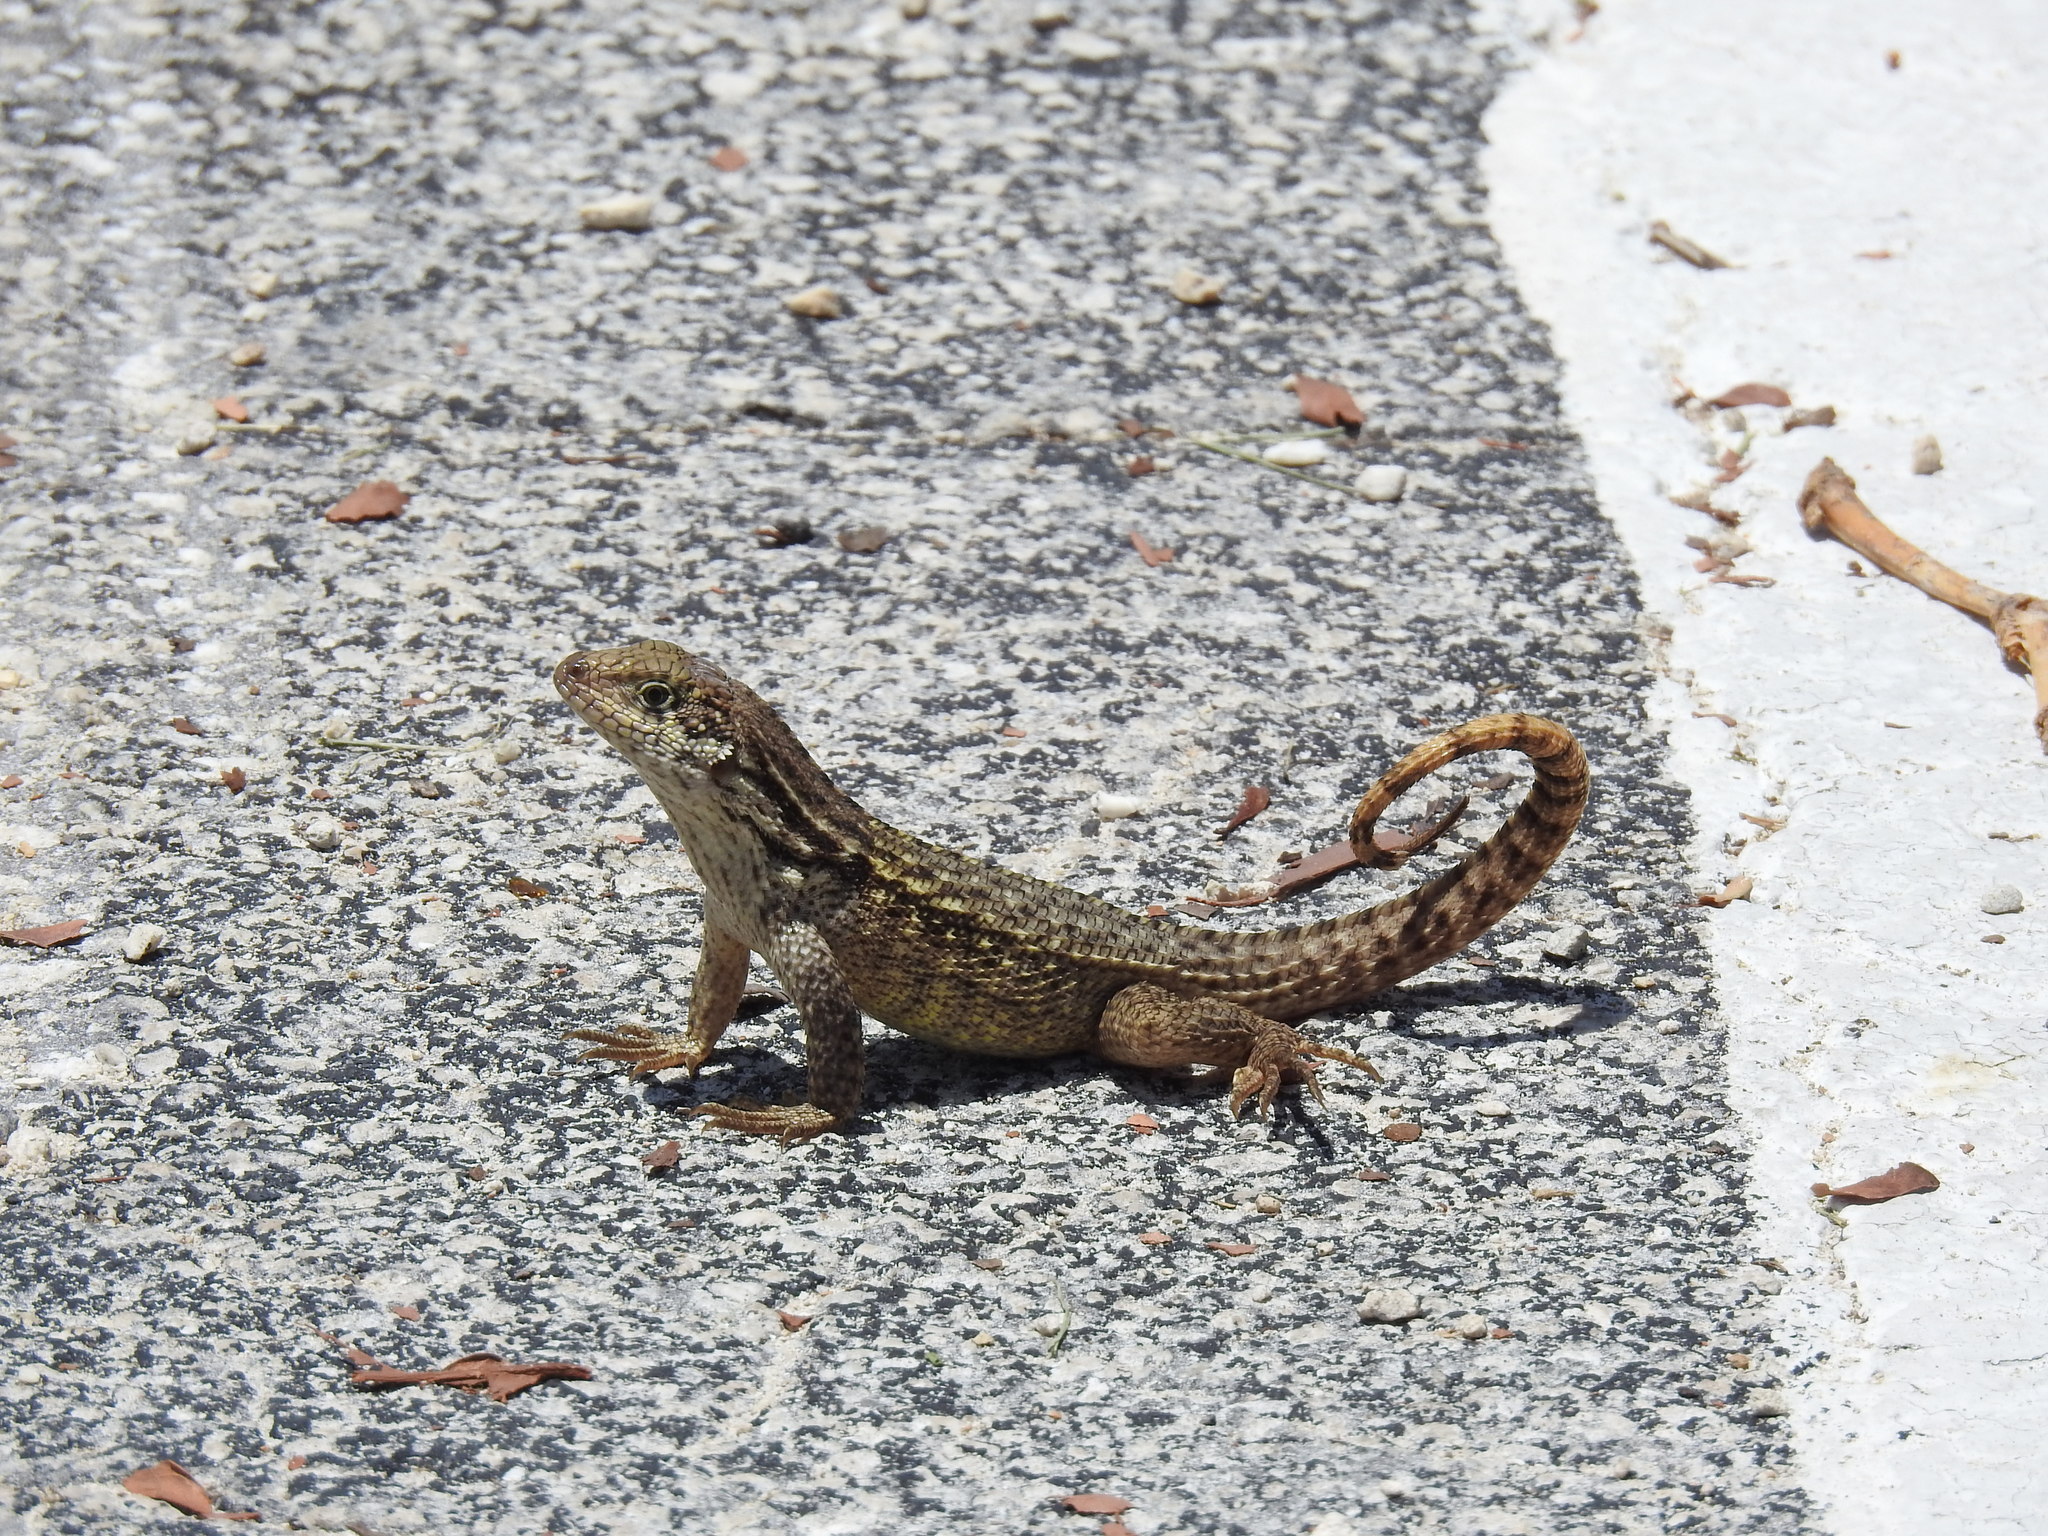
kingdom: Animalia
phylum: Chordata
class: Squamata
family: Leiocephalidae
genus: Leiocephalus
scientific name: Leiocephalus carinatus
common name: Northern curly-tailed lizard
